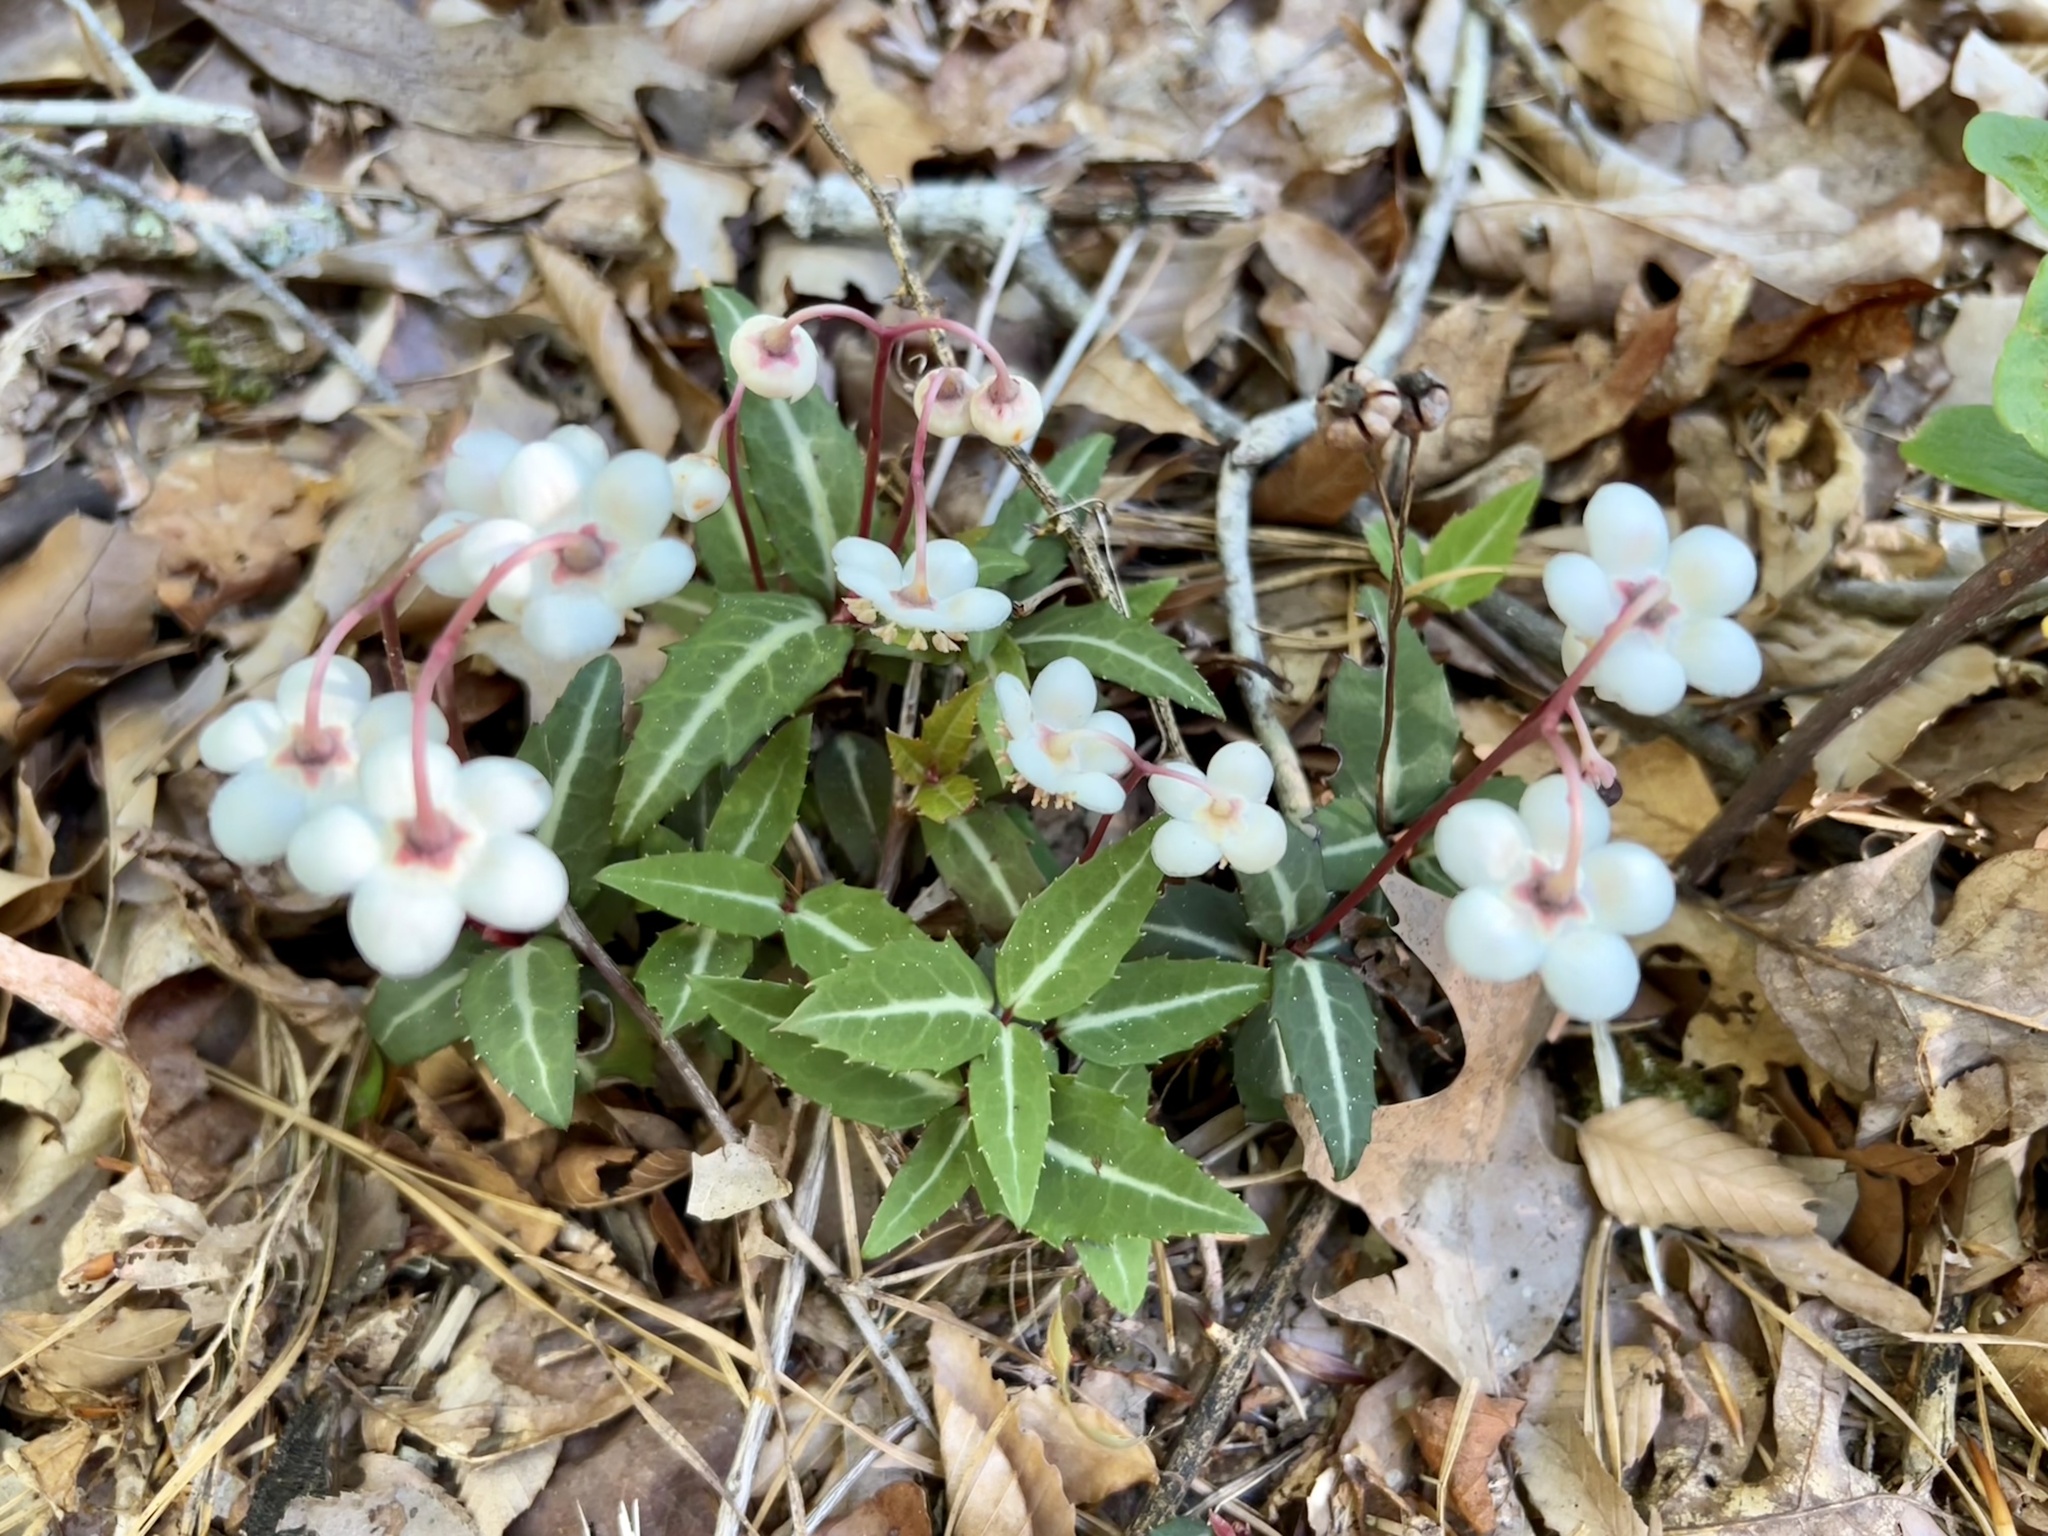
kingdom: Plantae
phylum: Tracheophyta
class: Magnoliopsida
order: Ericales
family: Ericaceae
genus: Chimaphila
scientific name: Chimaphila maculata
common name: Spotted pipsissewa
